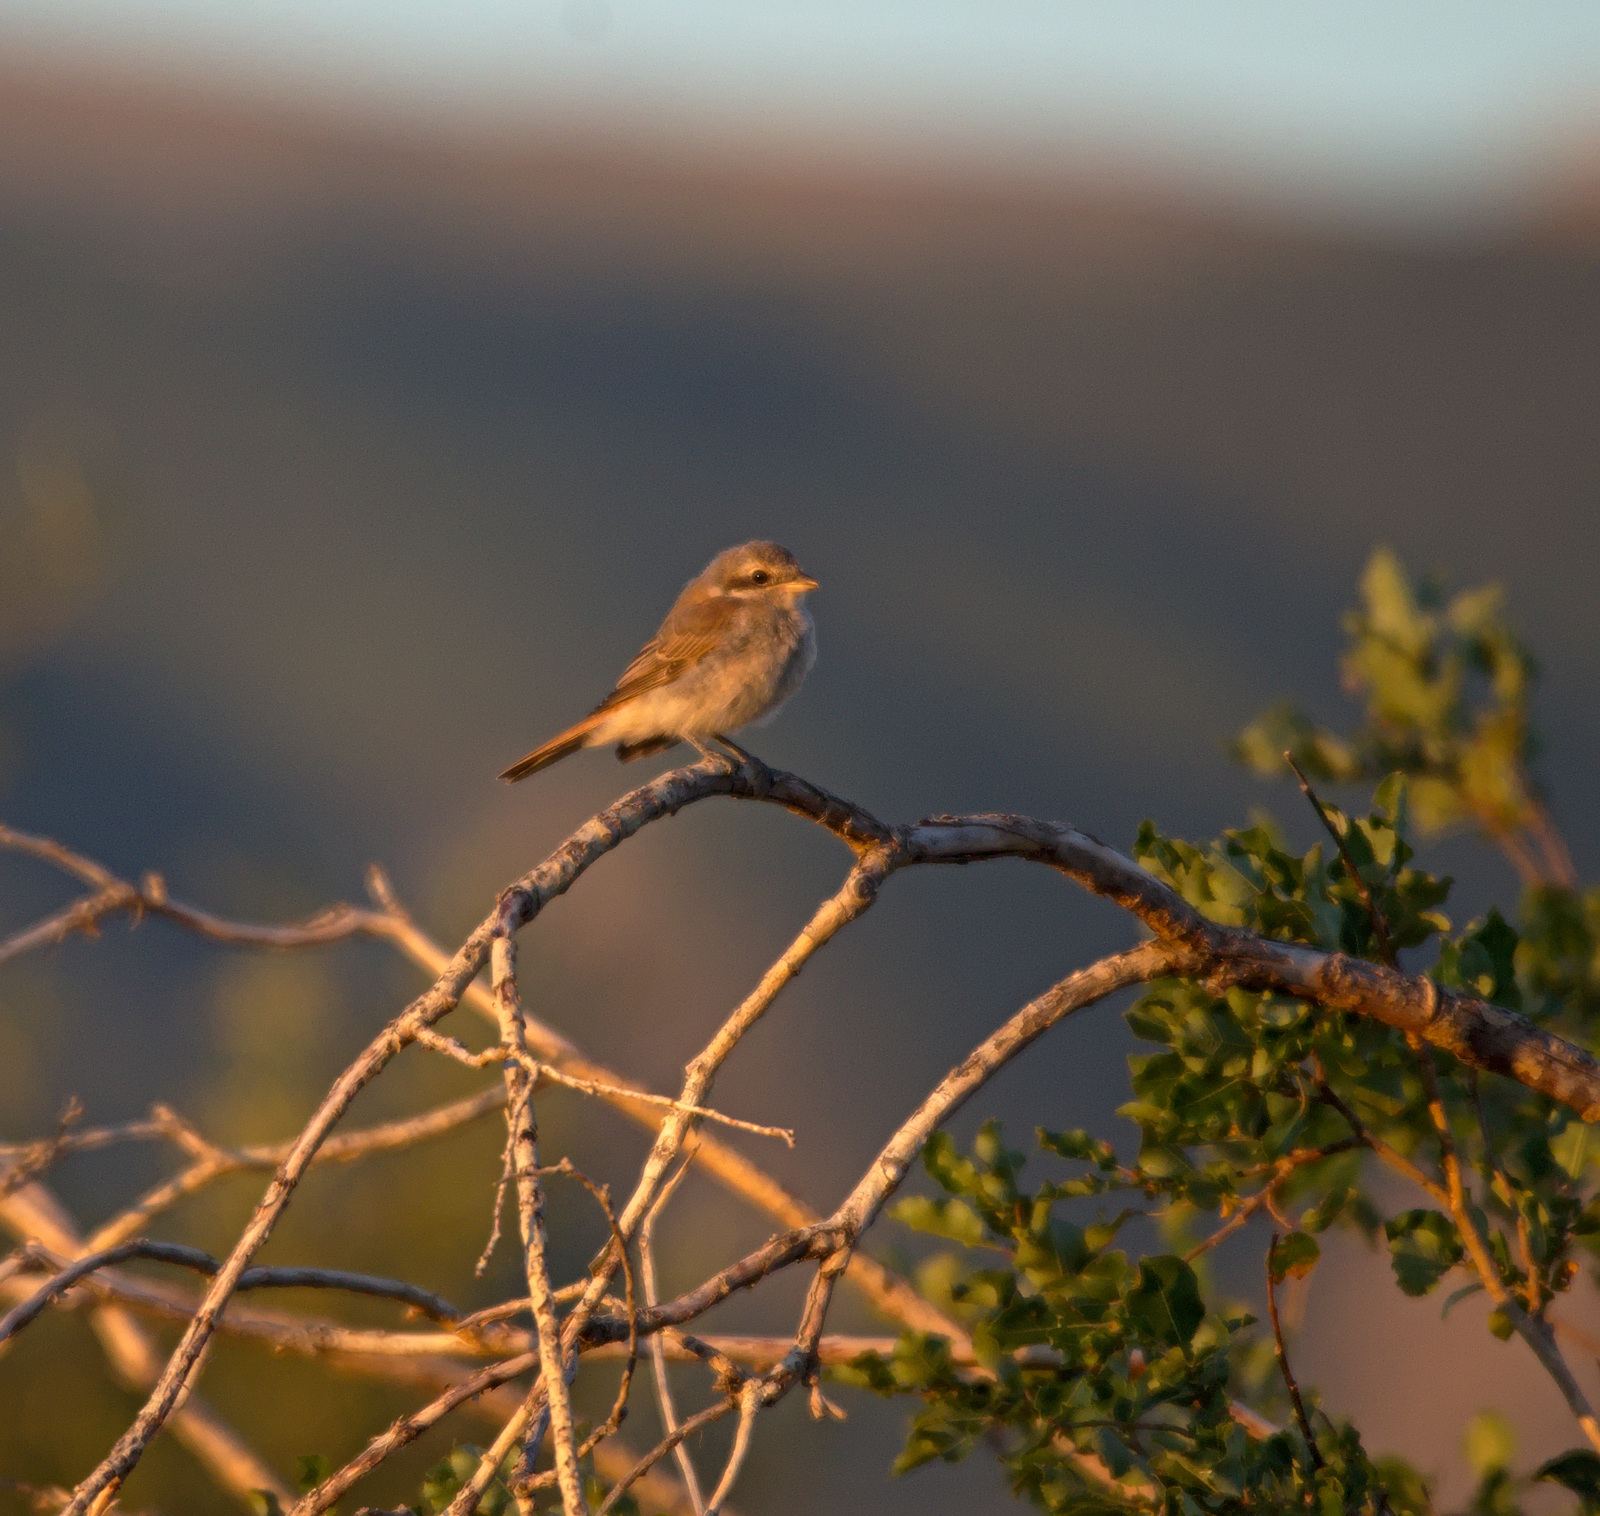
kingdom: Animalia
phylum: Chordata
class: Aves
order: Passeriformes
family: Laniidae
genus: Lanius
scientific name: Lanius isabellinus
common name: Isabelline shrike
